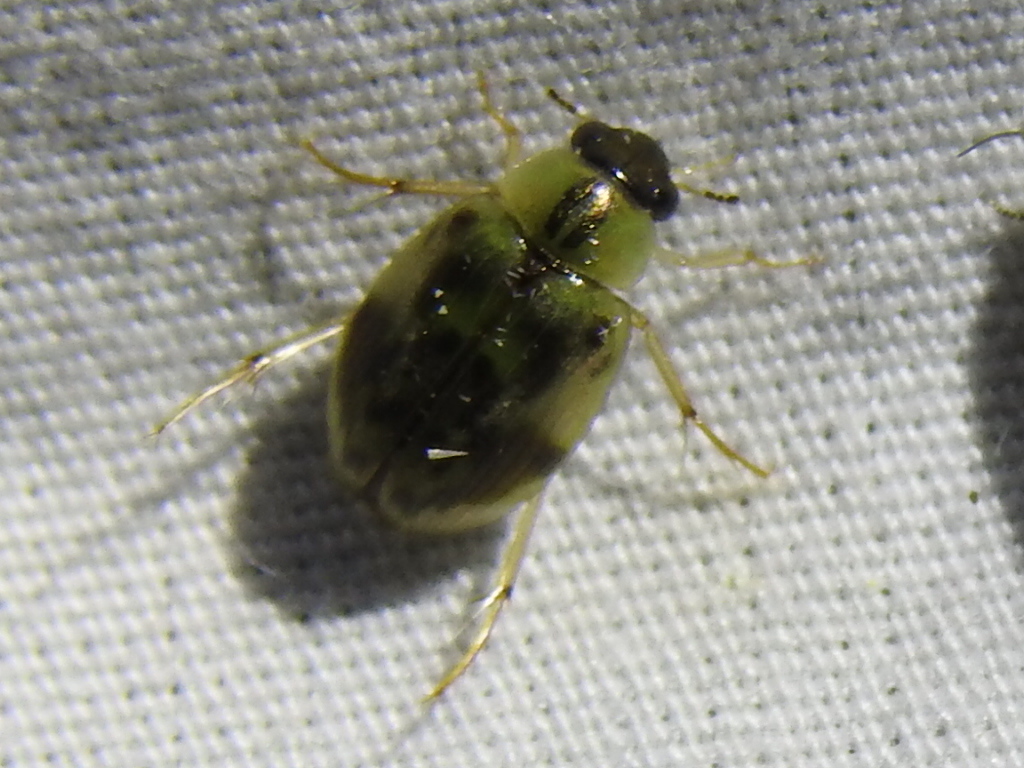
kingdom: Animalia
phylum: Arthropoda
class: Insecta
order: Coleoptera
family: Hydrophilidae
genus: Berosus
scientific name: Berosus miles
